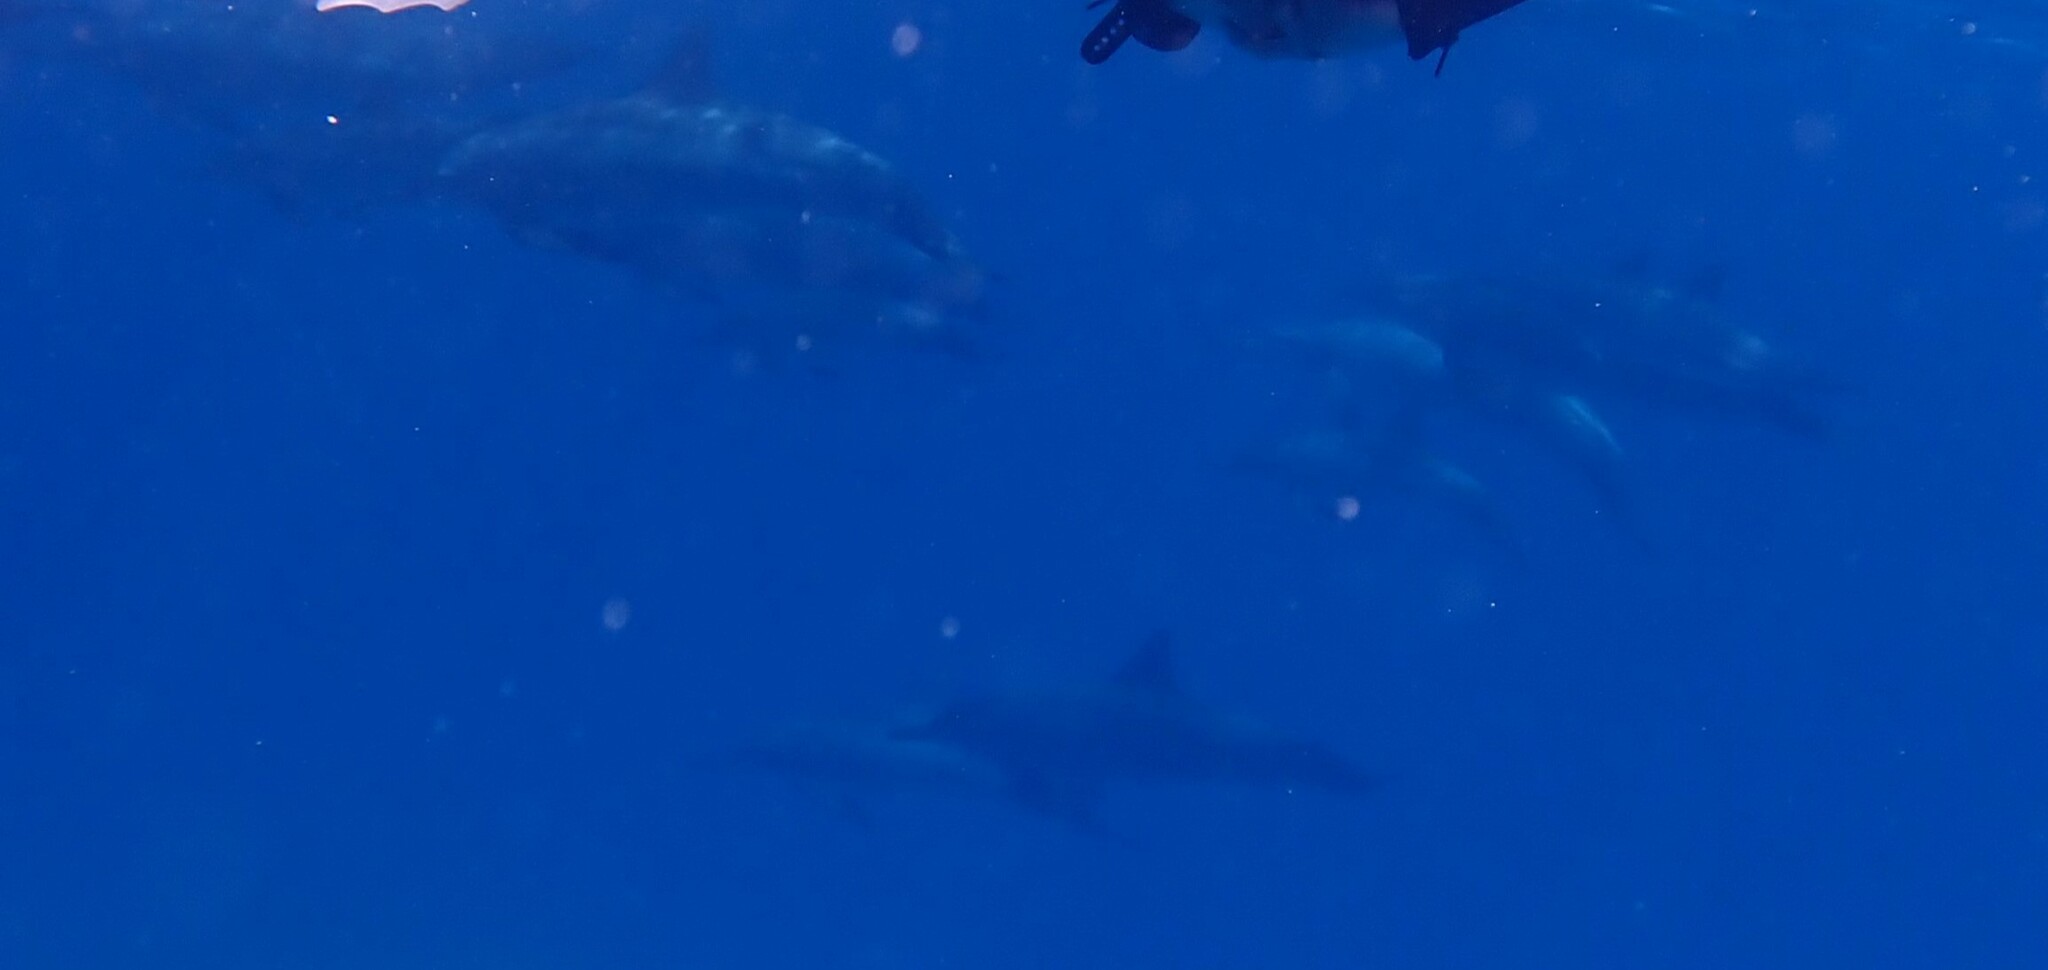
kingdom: Animalia
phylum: Chordata
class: Mammalia
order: Cetacea
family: Delphinidae
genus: Stenella
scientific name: Stenella longirostris
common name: Spinner dolphin
